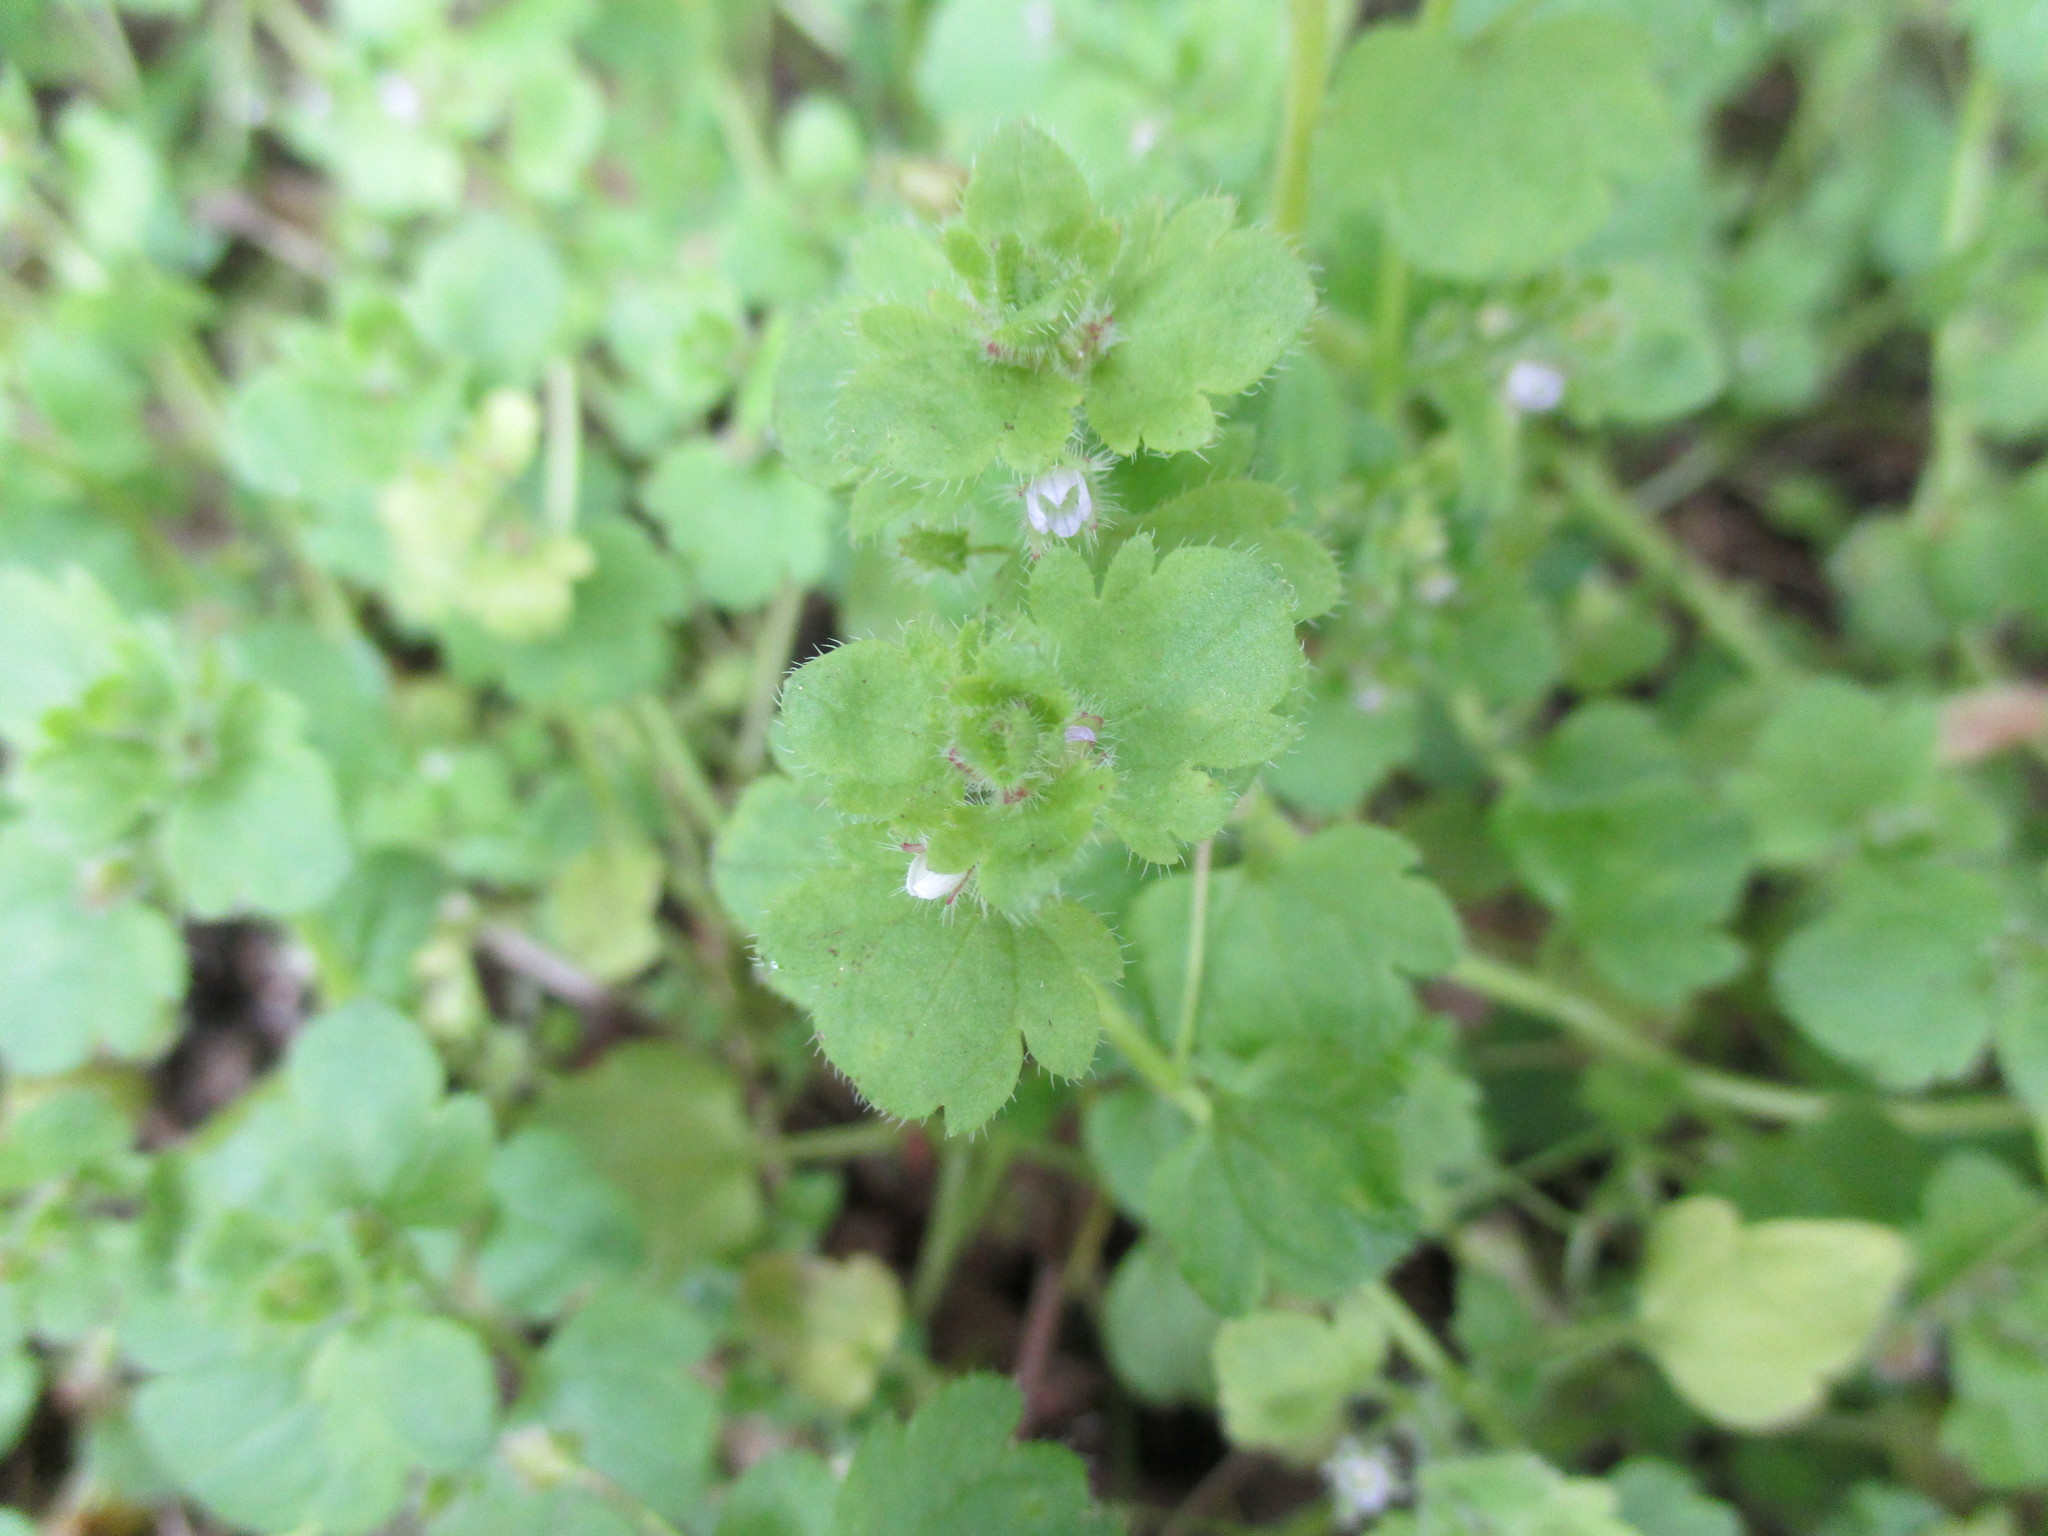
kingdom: Plantae
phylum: Tracheophyta
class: Magnoliopsida
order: Lamiales
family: Plantaginaceae
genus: Veronica
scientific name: Veronica hederifolia
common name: Ivy-leaved speedwell
